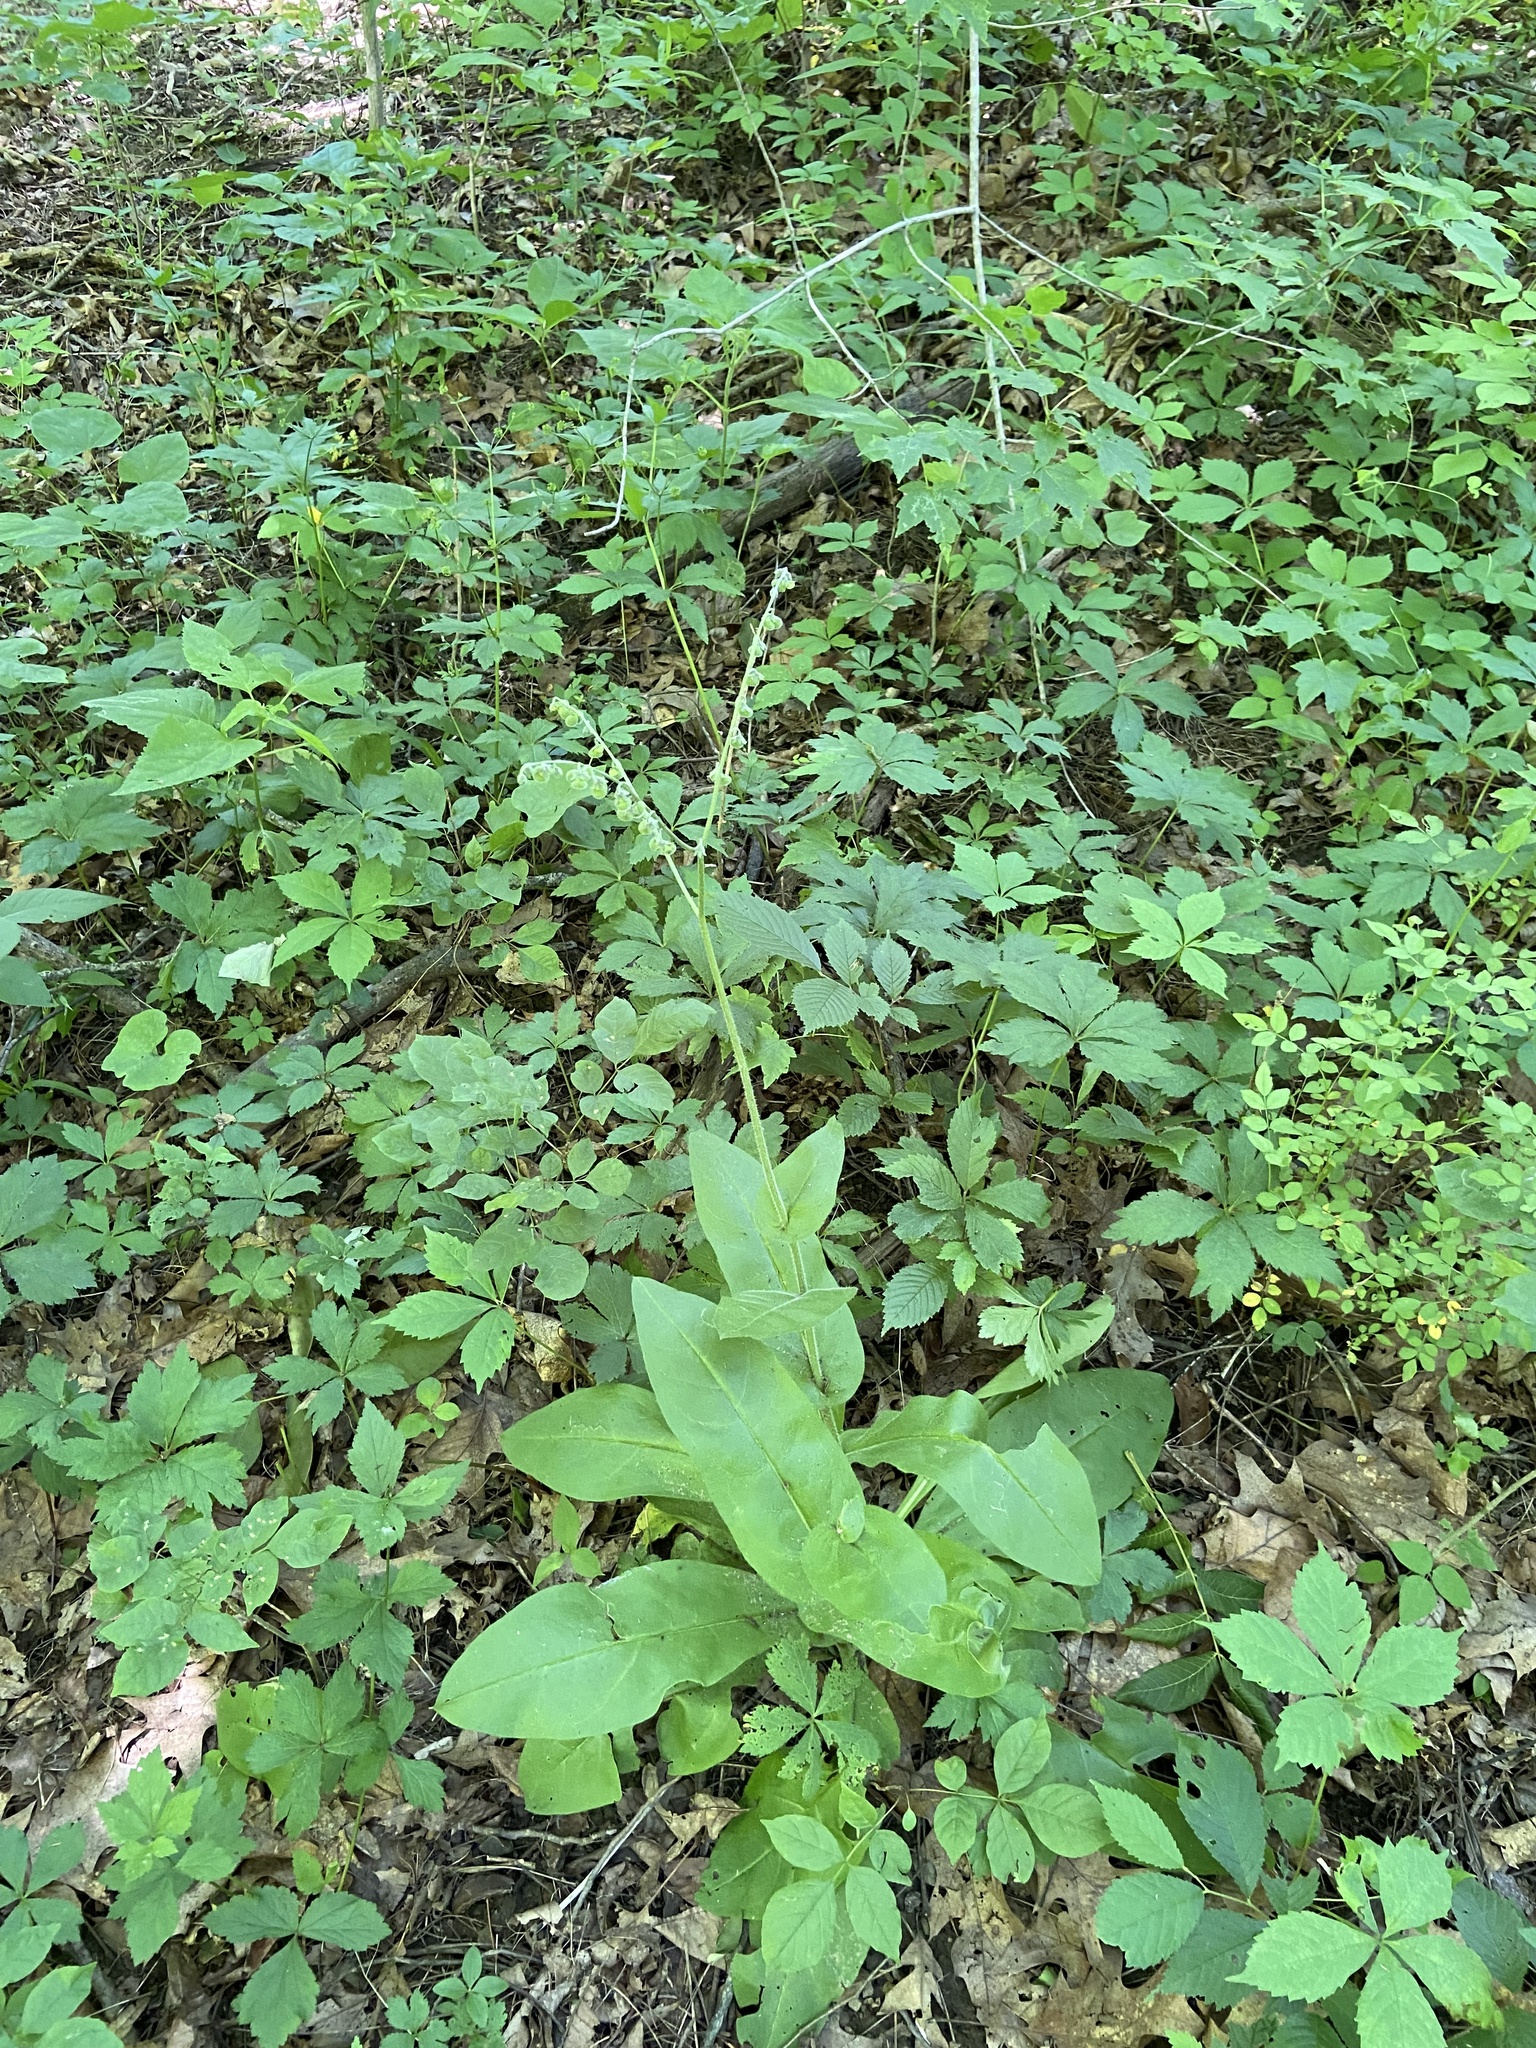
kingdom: Plantae
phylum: Tracheophyta
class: Magnoliopsida
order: Boraginales
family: Boraginaceae
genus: Andersonglossum
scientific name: Andersonglossum virginianum
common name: Wild comfrey
